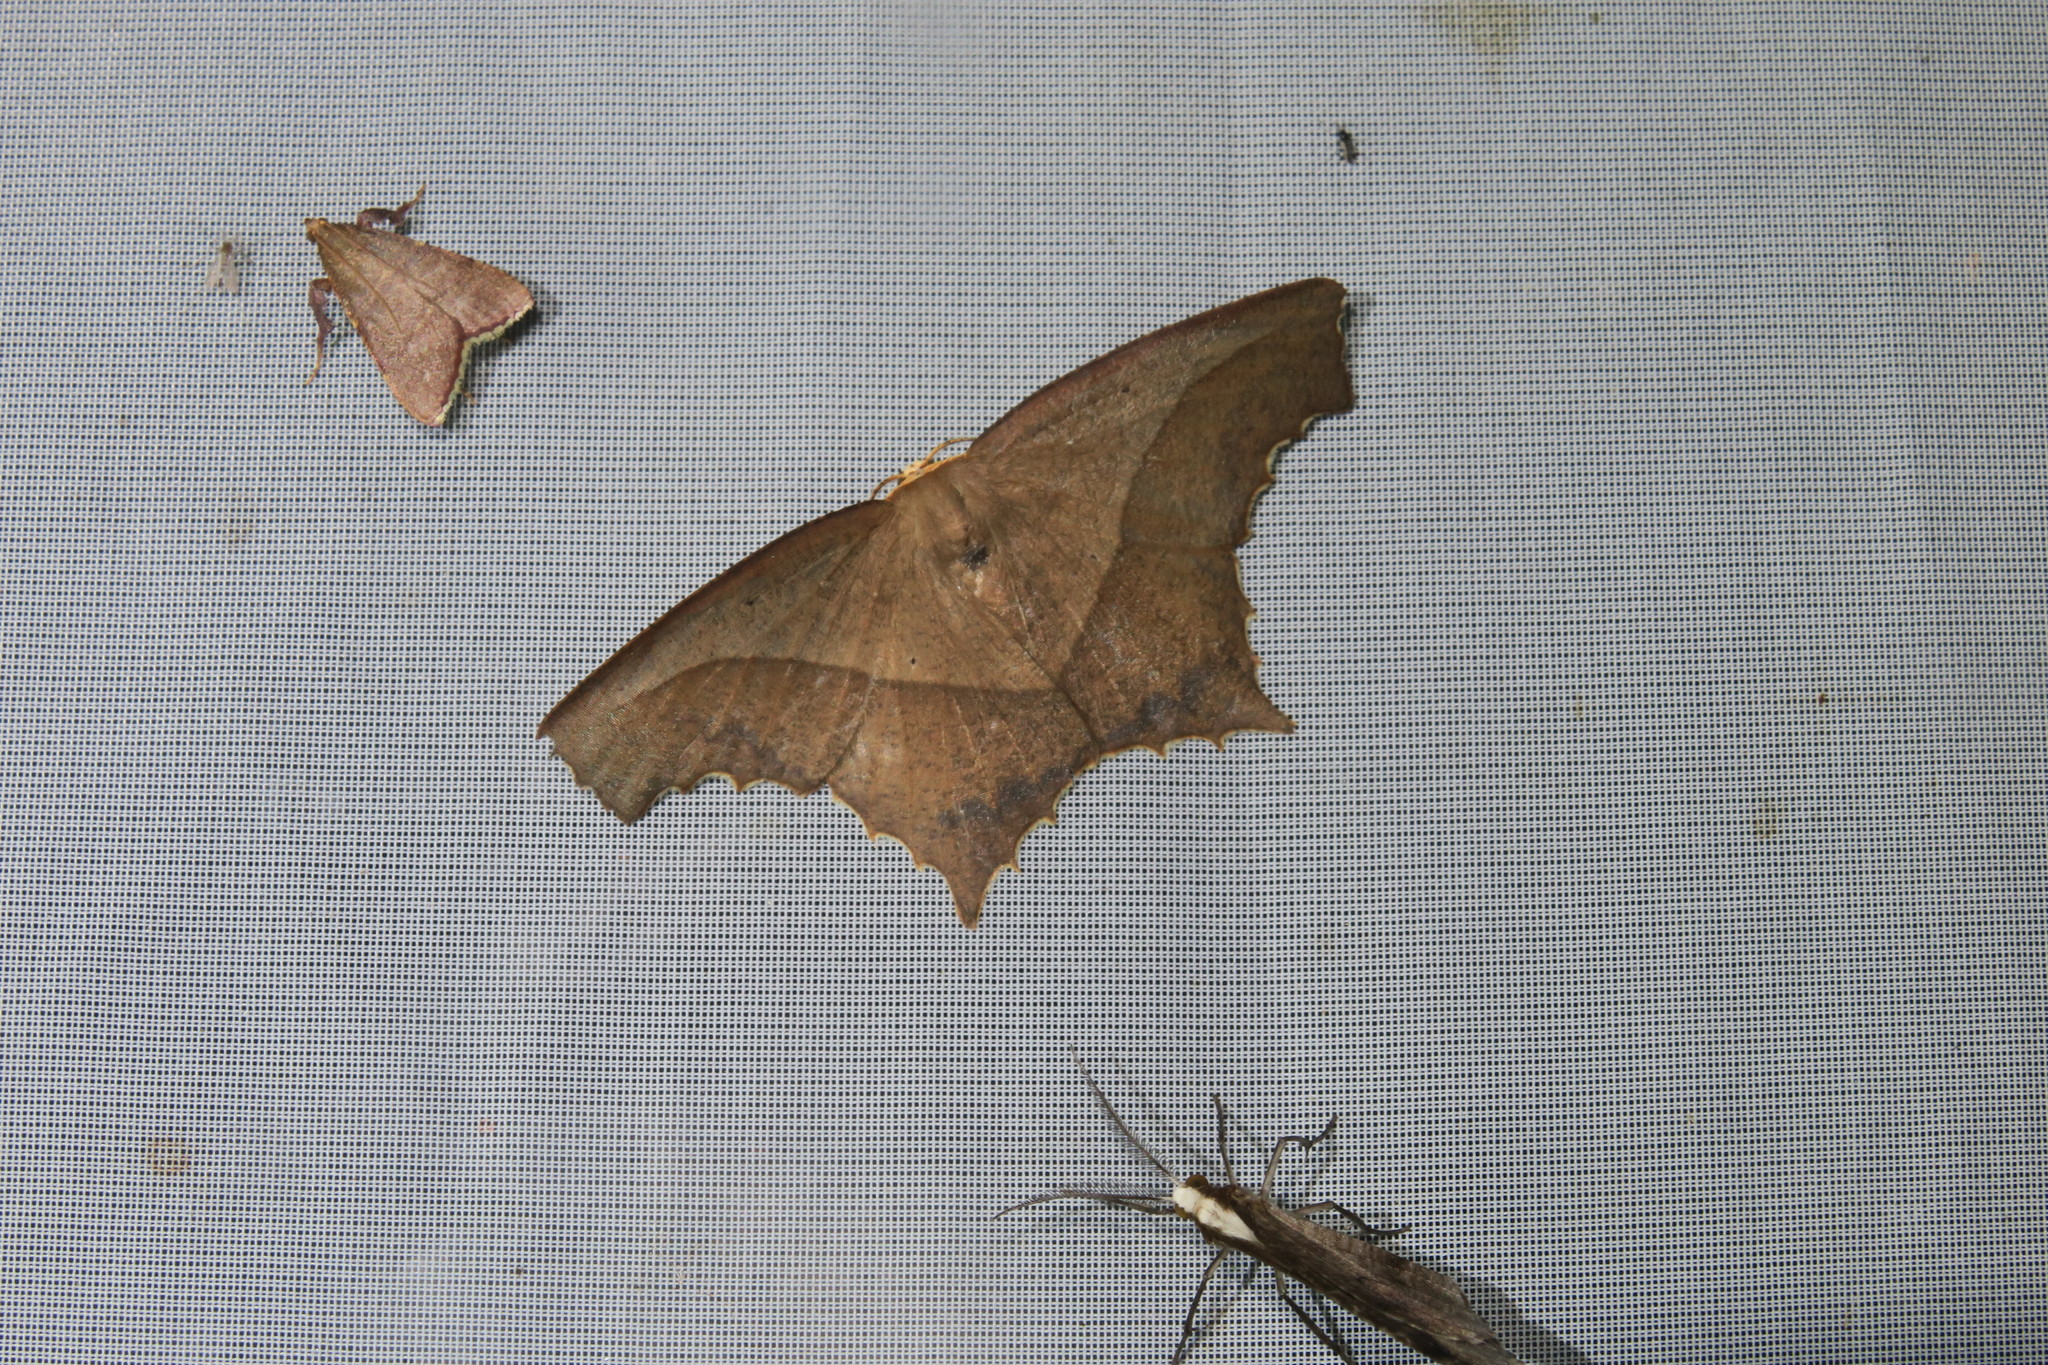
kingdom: Animalia
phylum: Arthropoda
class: Insecta
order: Lepidoptera
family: Geometridae
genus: Eutomopepla
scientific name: Eutomopepla rogenhoferi
